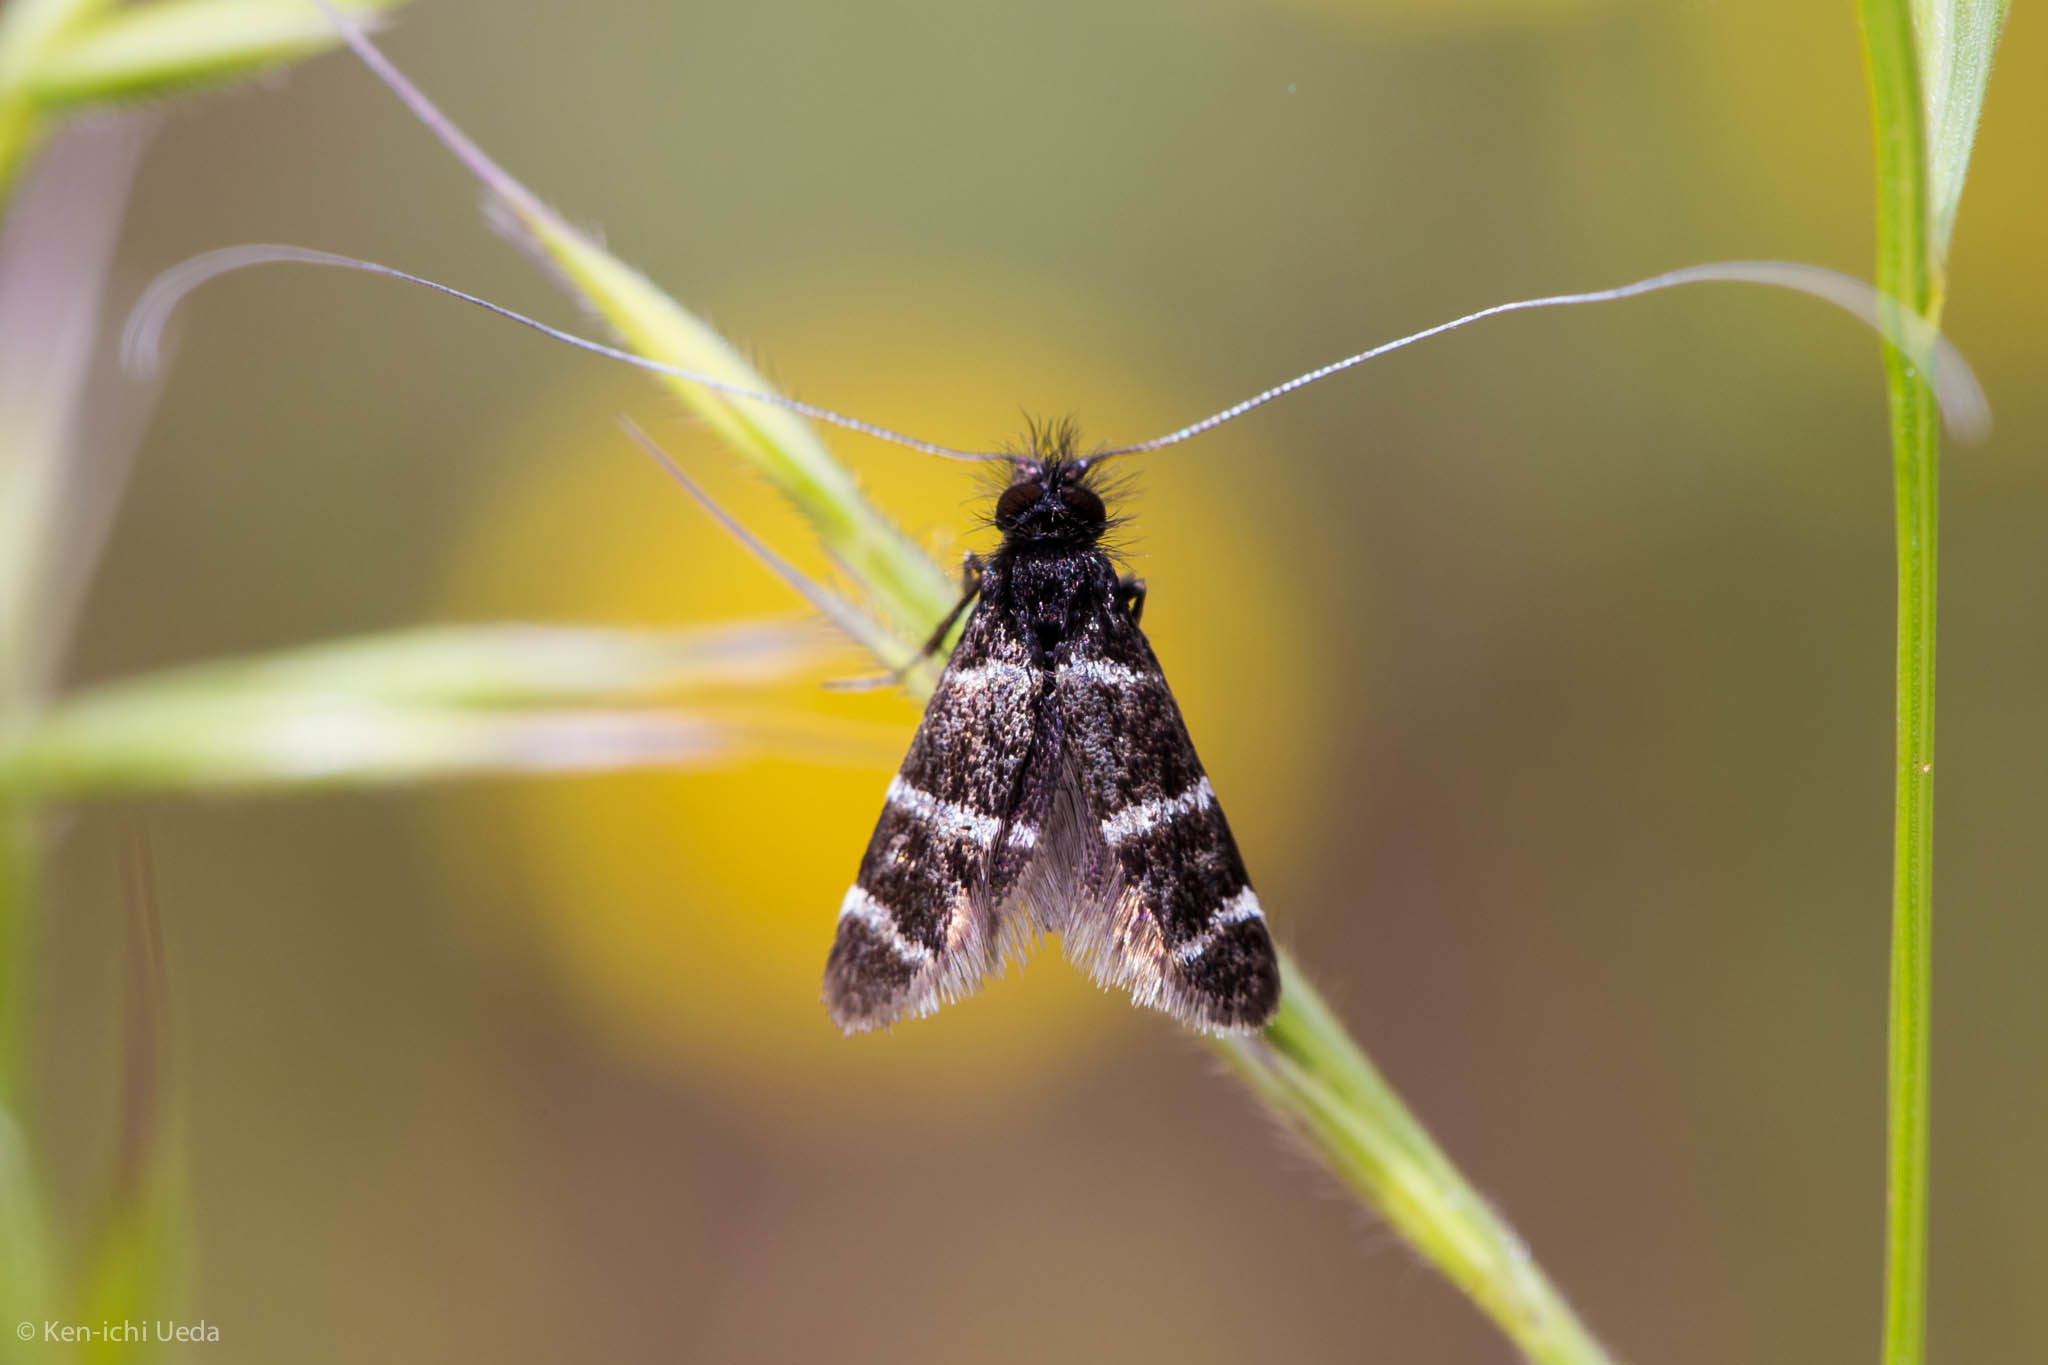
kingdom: Animalia
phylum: Arthropoda
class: Insecta
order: Lepidoptera
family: Adelidae
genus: Adela
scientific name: Adela trigrapha
